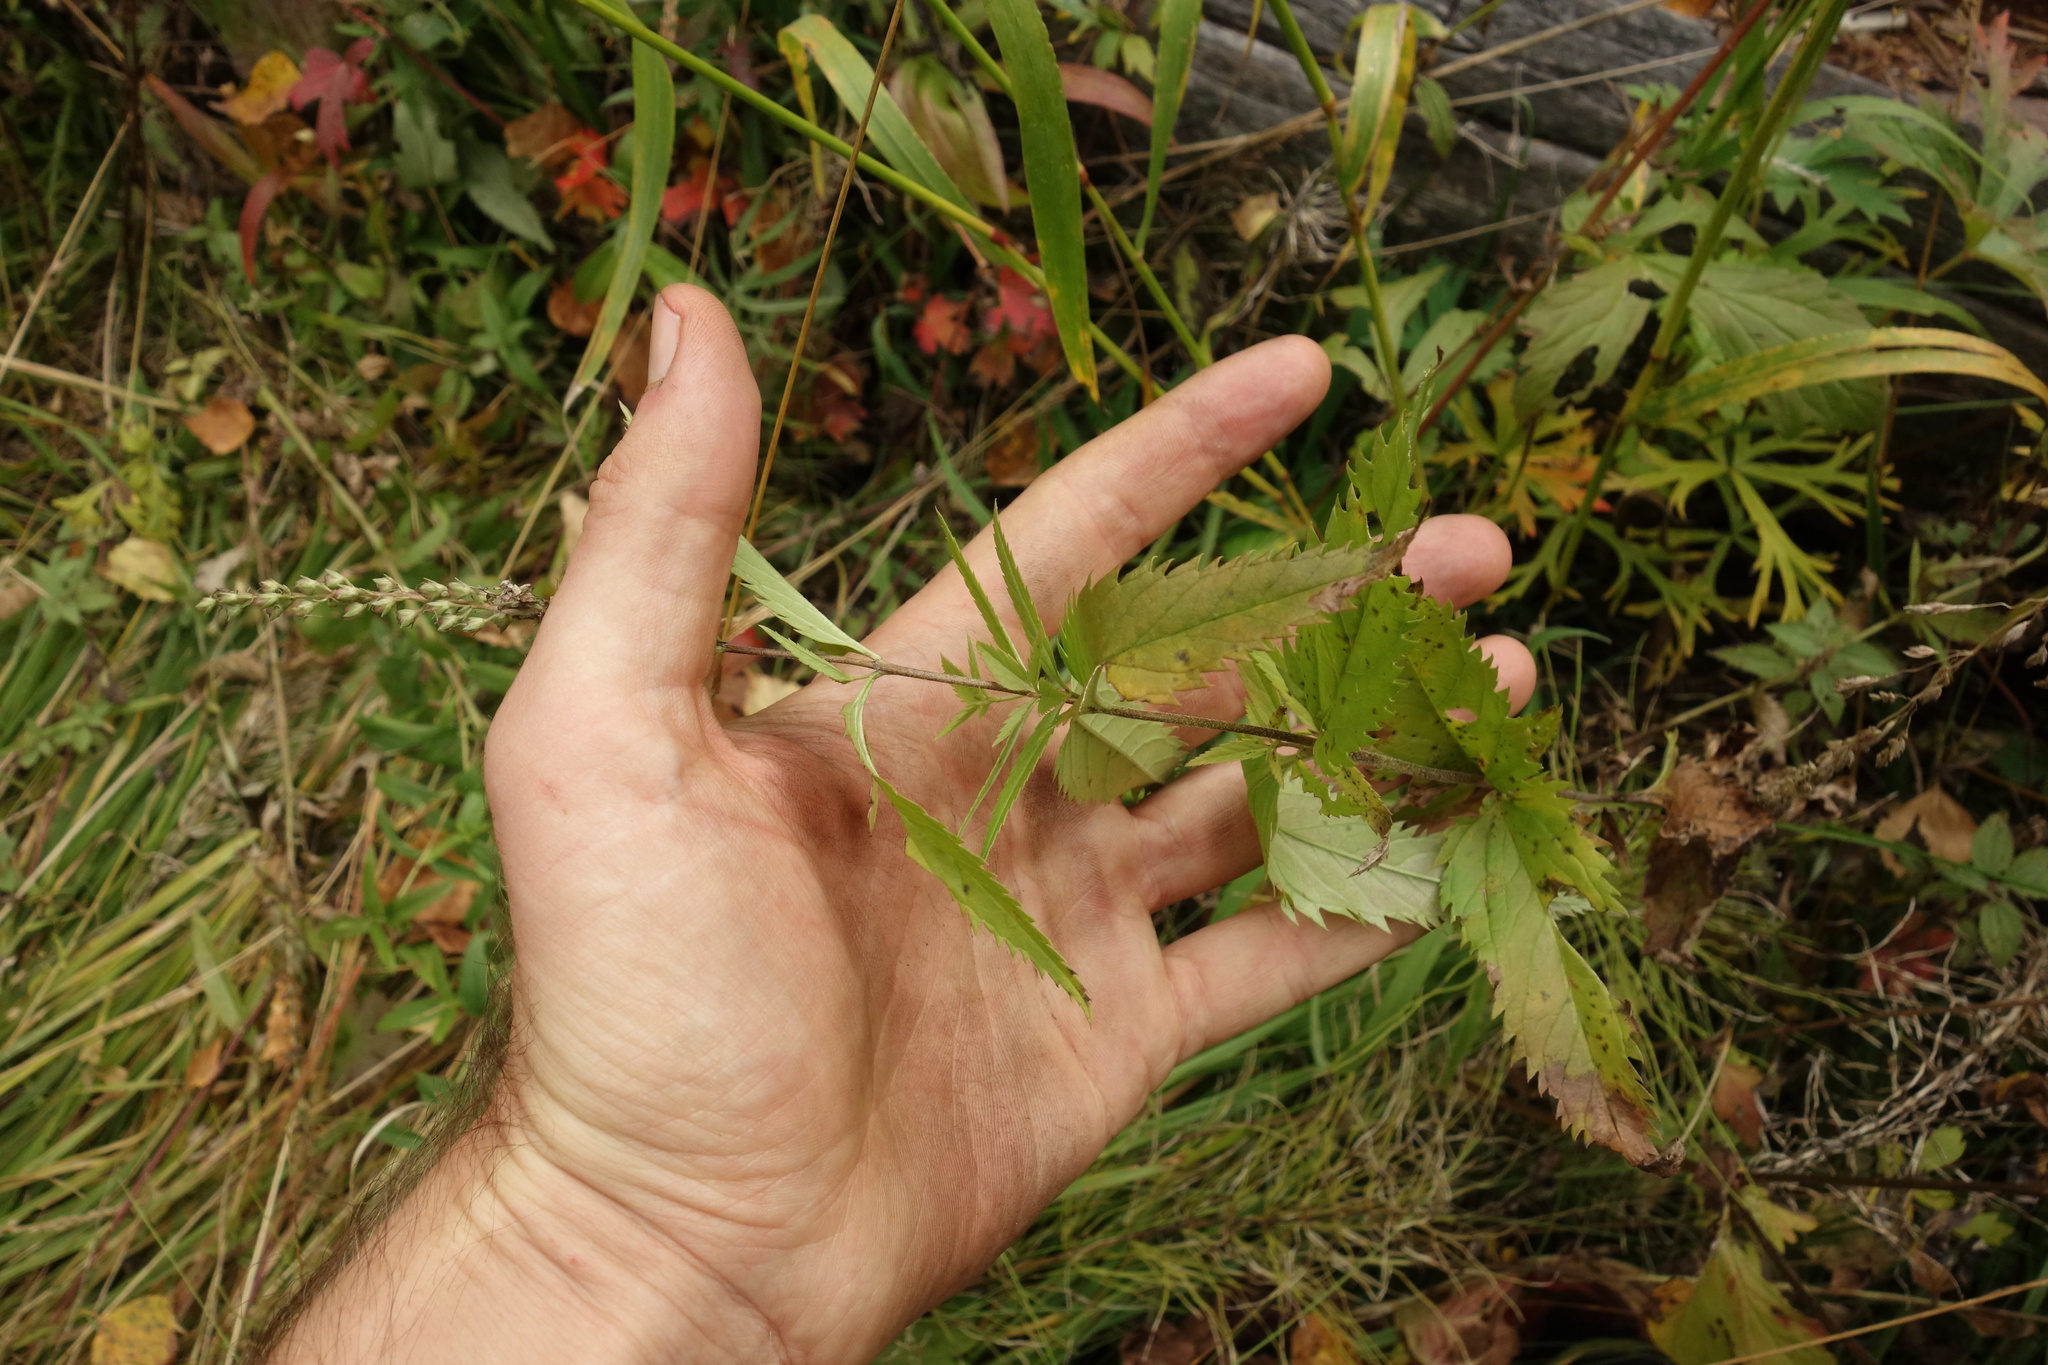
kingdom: Plantae
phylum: Tracheophyta
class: Magnoliopsida
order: Lamiales
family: Plantaginaceae
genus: Veronica
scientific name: Veronica longifolia
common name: Garden speedwell
